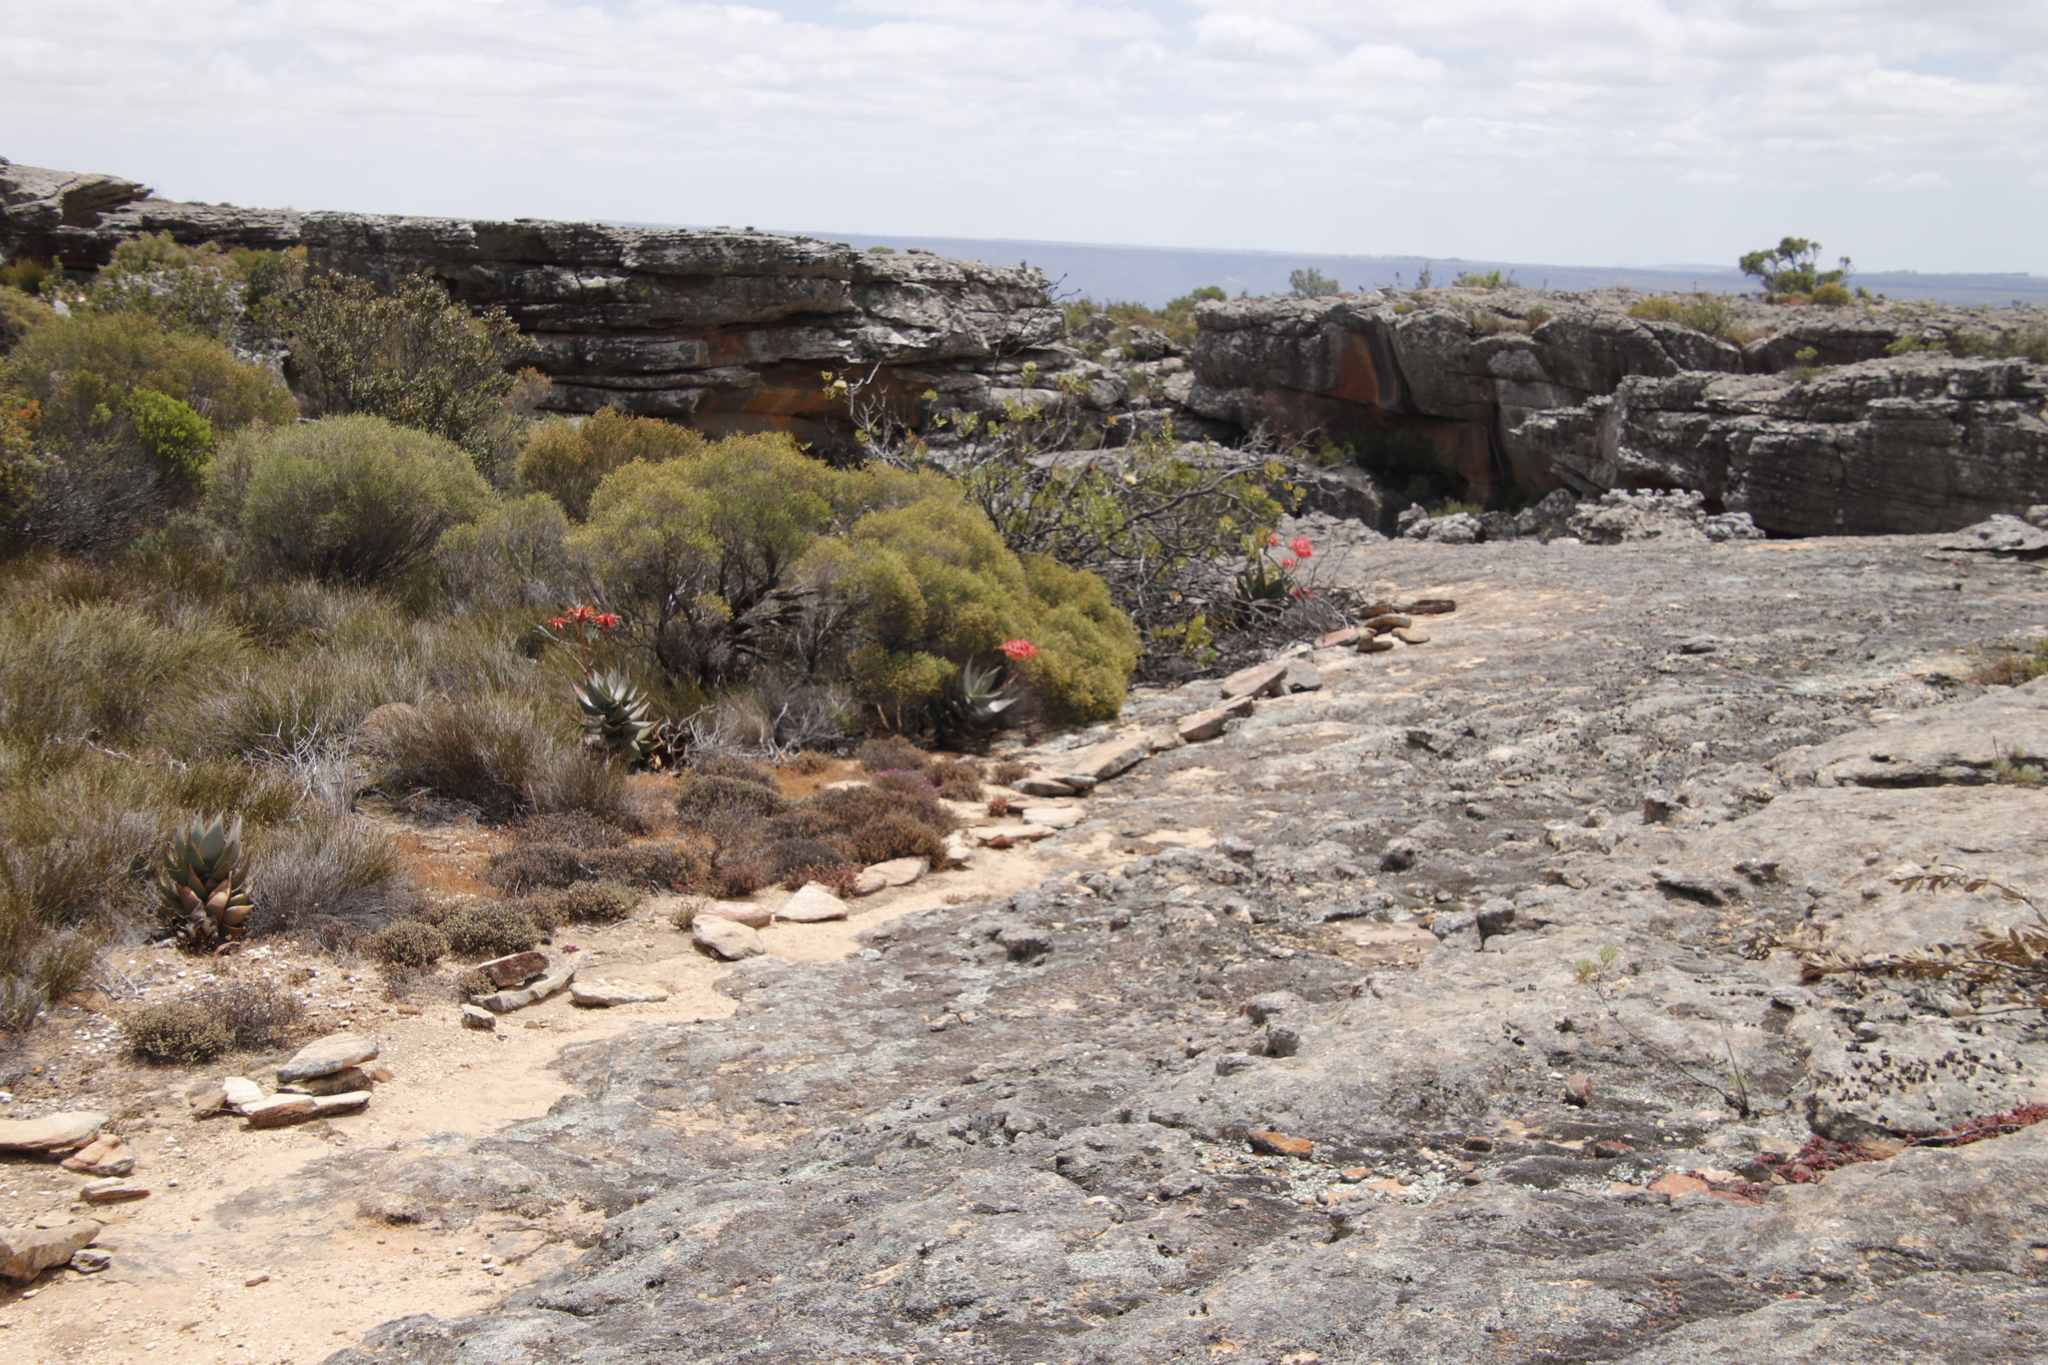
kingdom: Plantae
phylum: Tracheophyta
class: Liliopsida
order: Asparagales
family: Asphodelaceae
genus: Aloe
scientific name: Aloe perfoliata
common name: Mitra aloe
